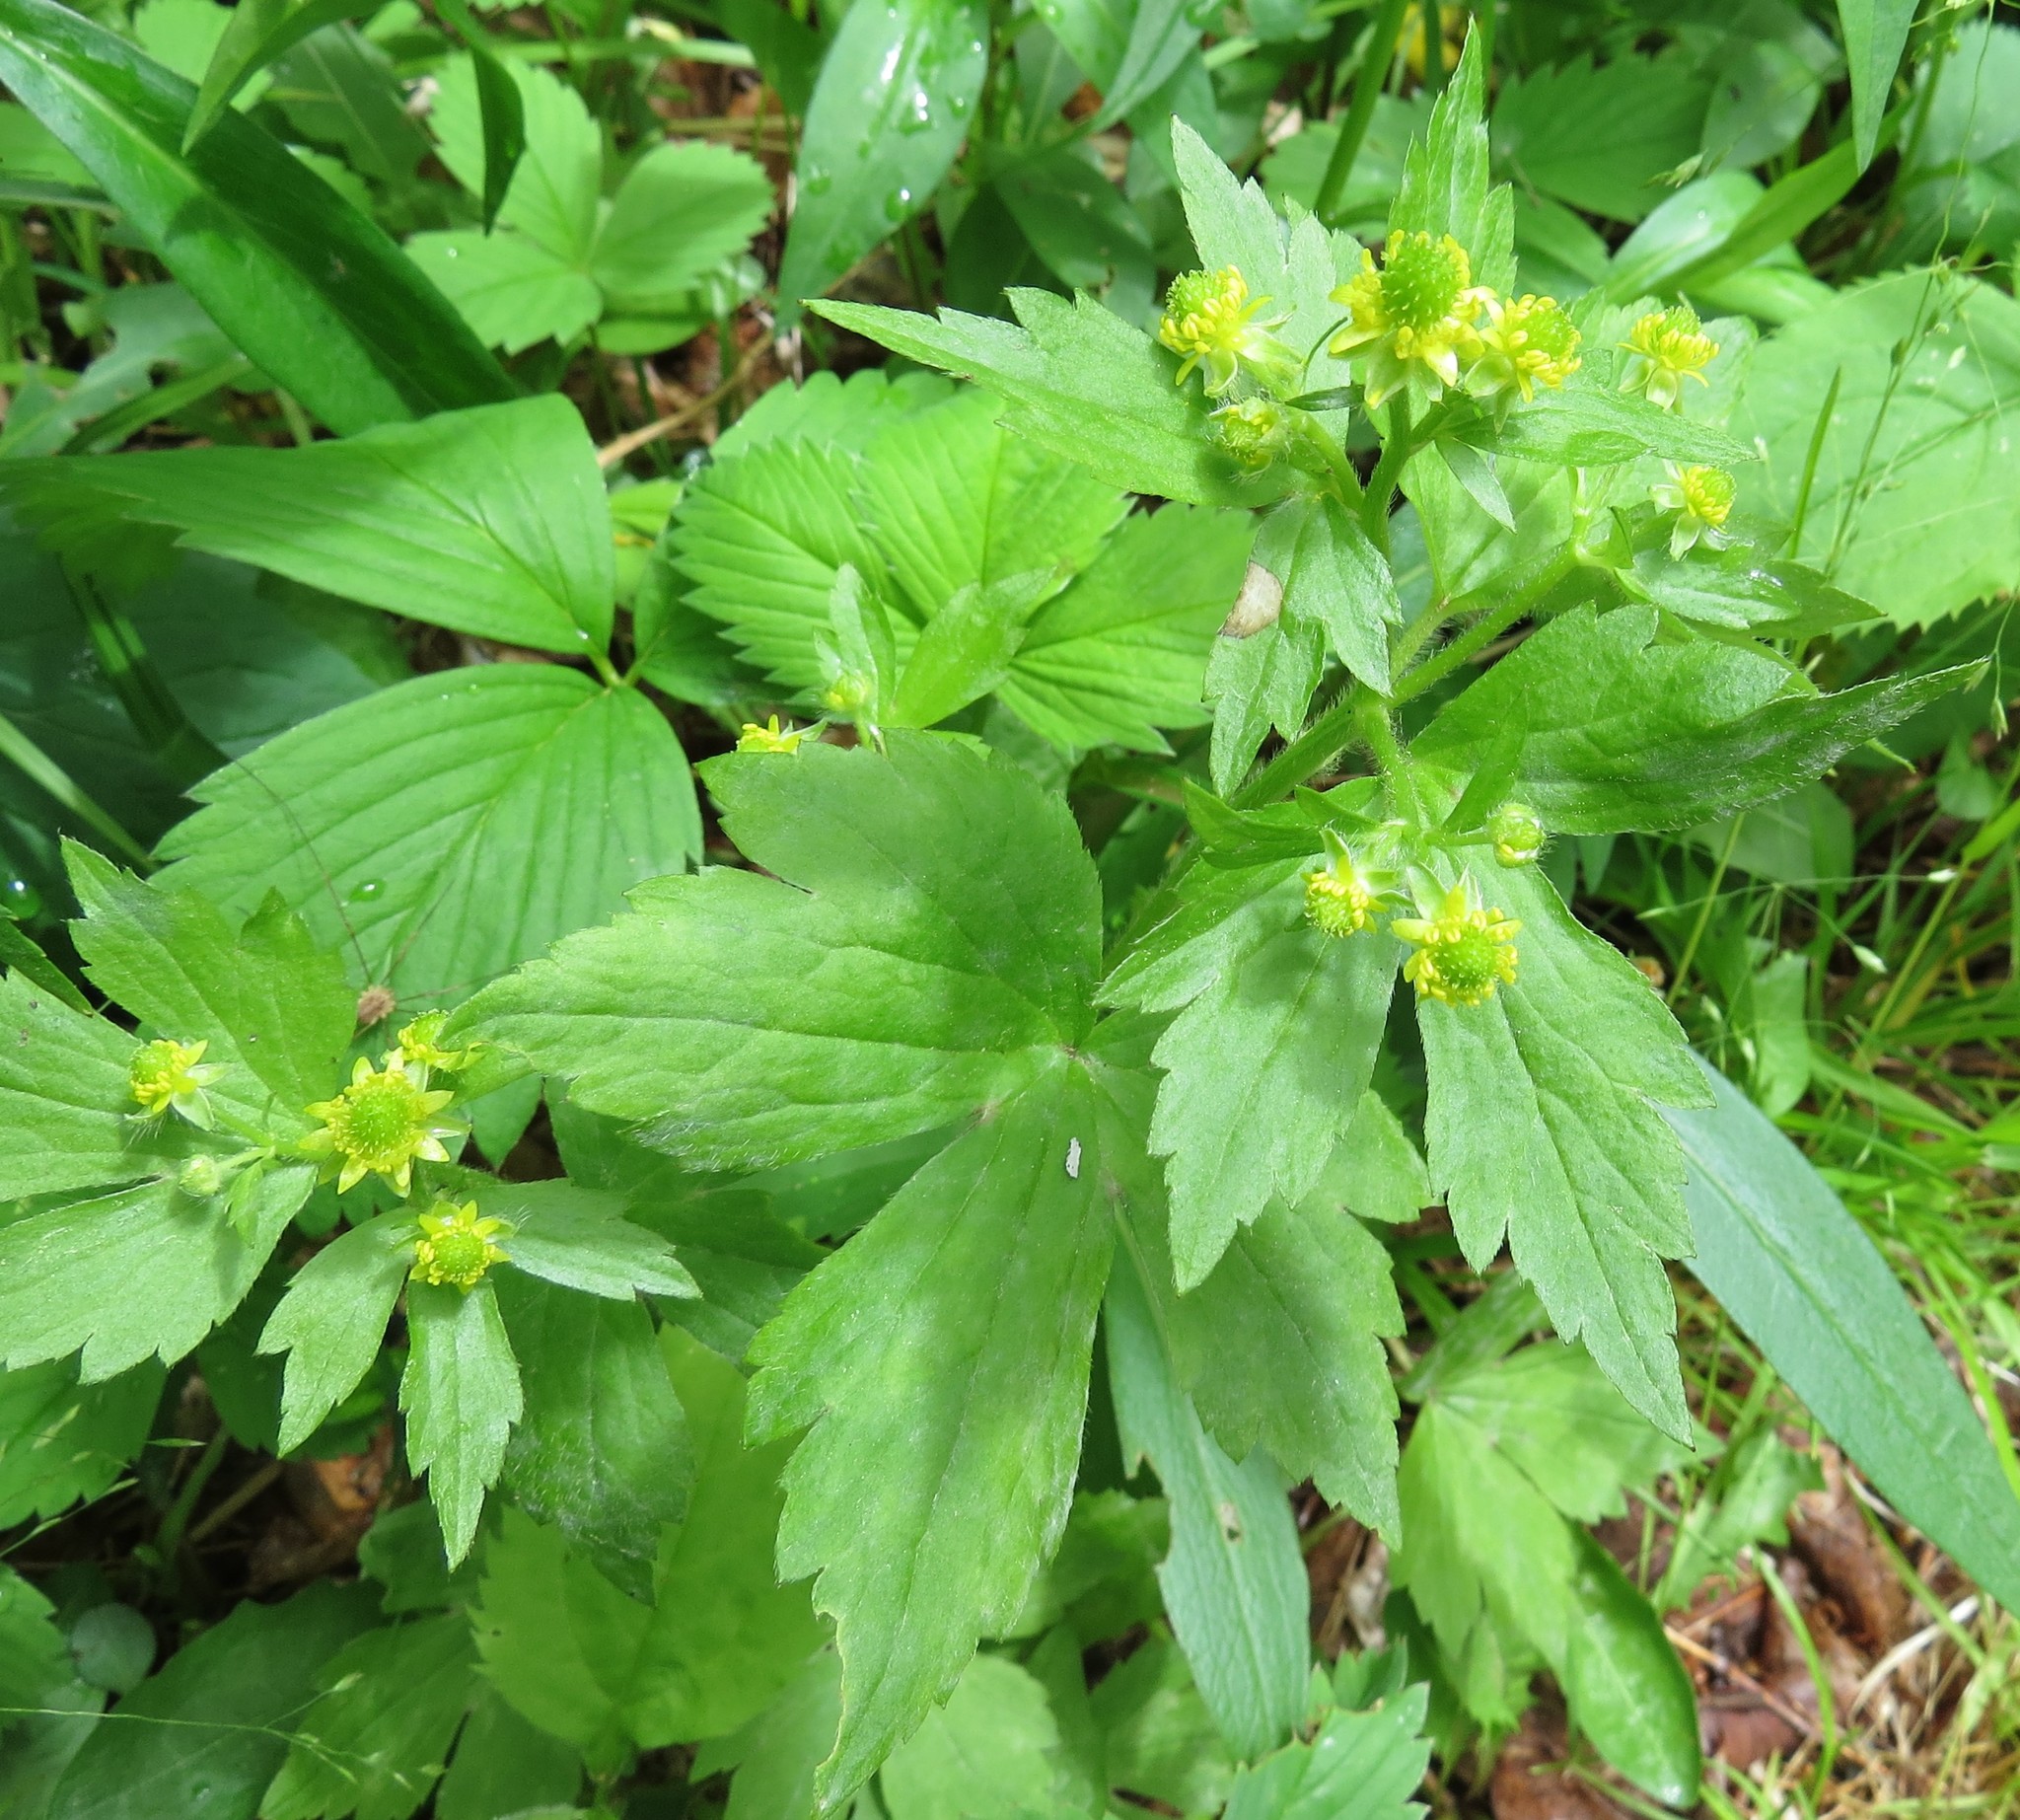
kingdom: Plantae
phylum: Tracheophyta
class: Magnoliopsida
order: Ranunculales
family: Ranunculaceae
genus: Ranunculus
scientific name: Ranunculus recurvatus
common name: Blisterwort
